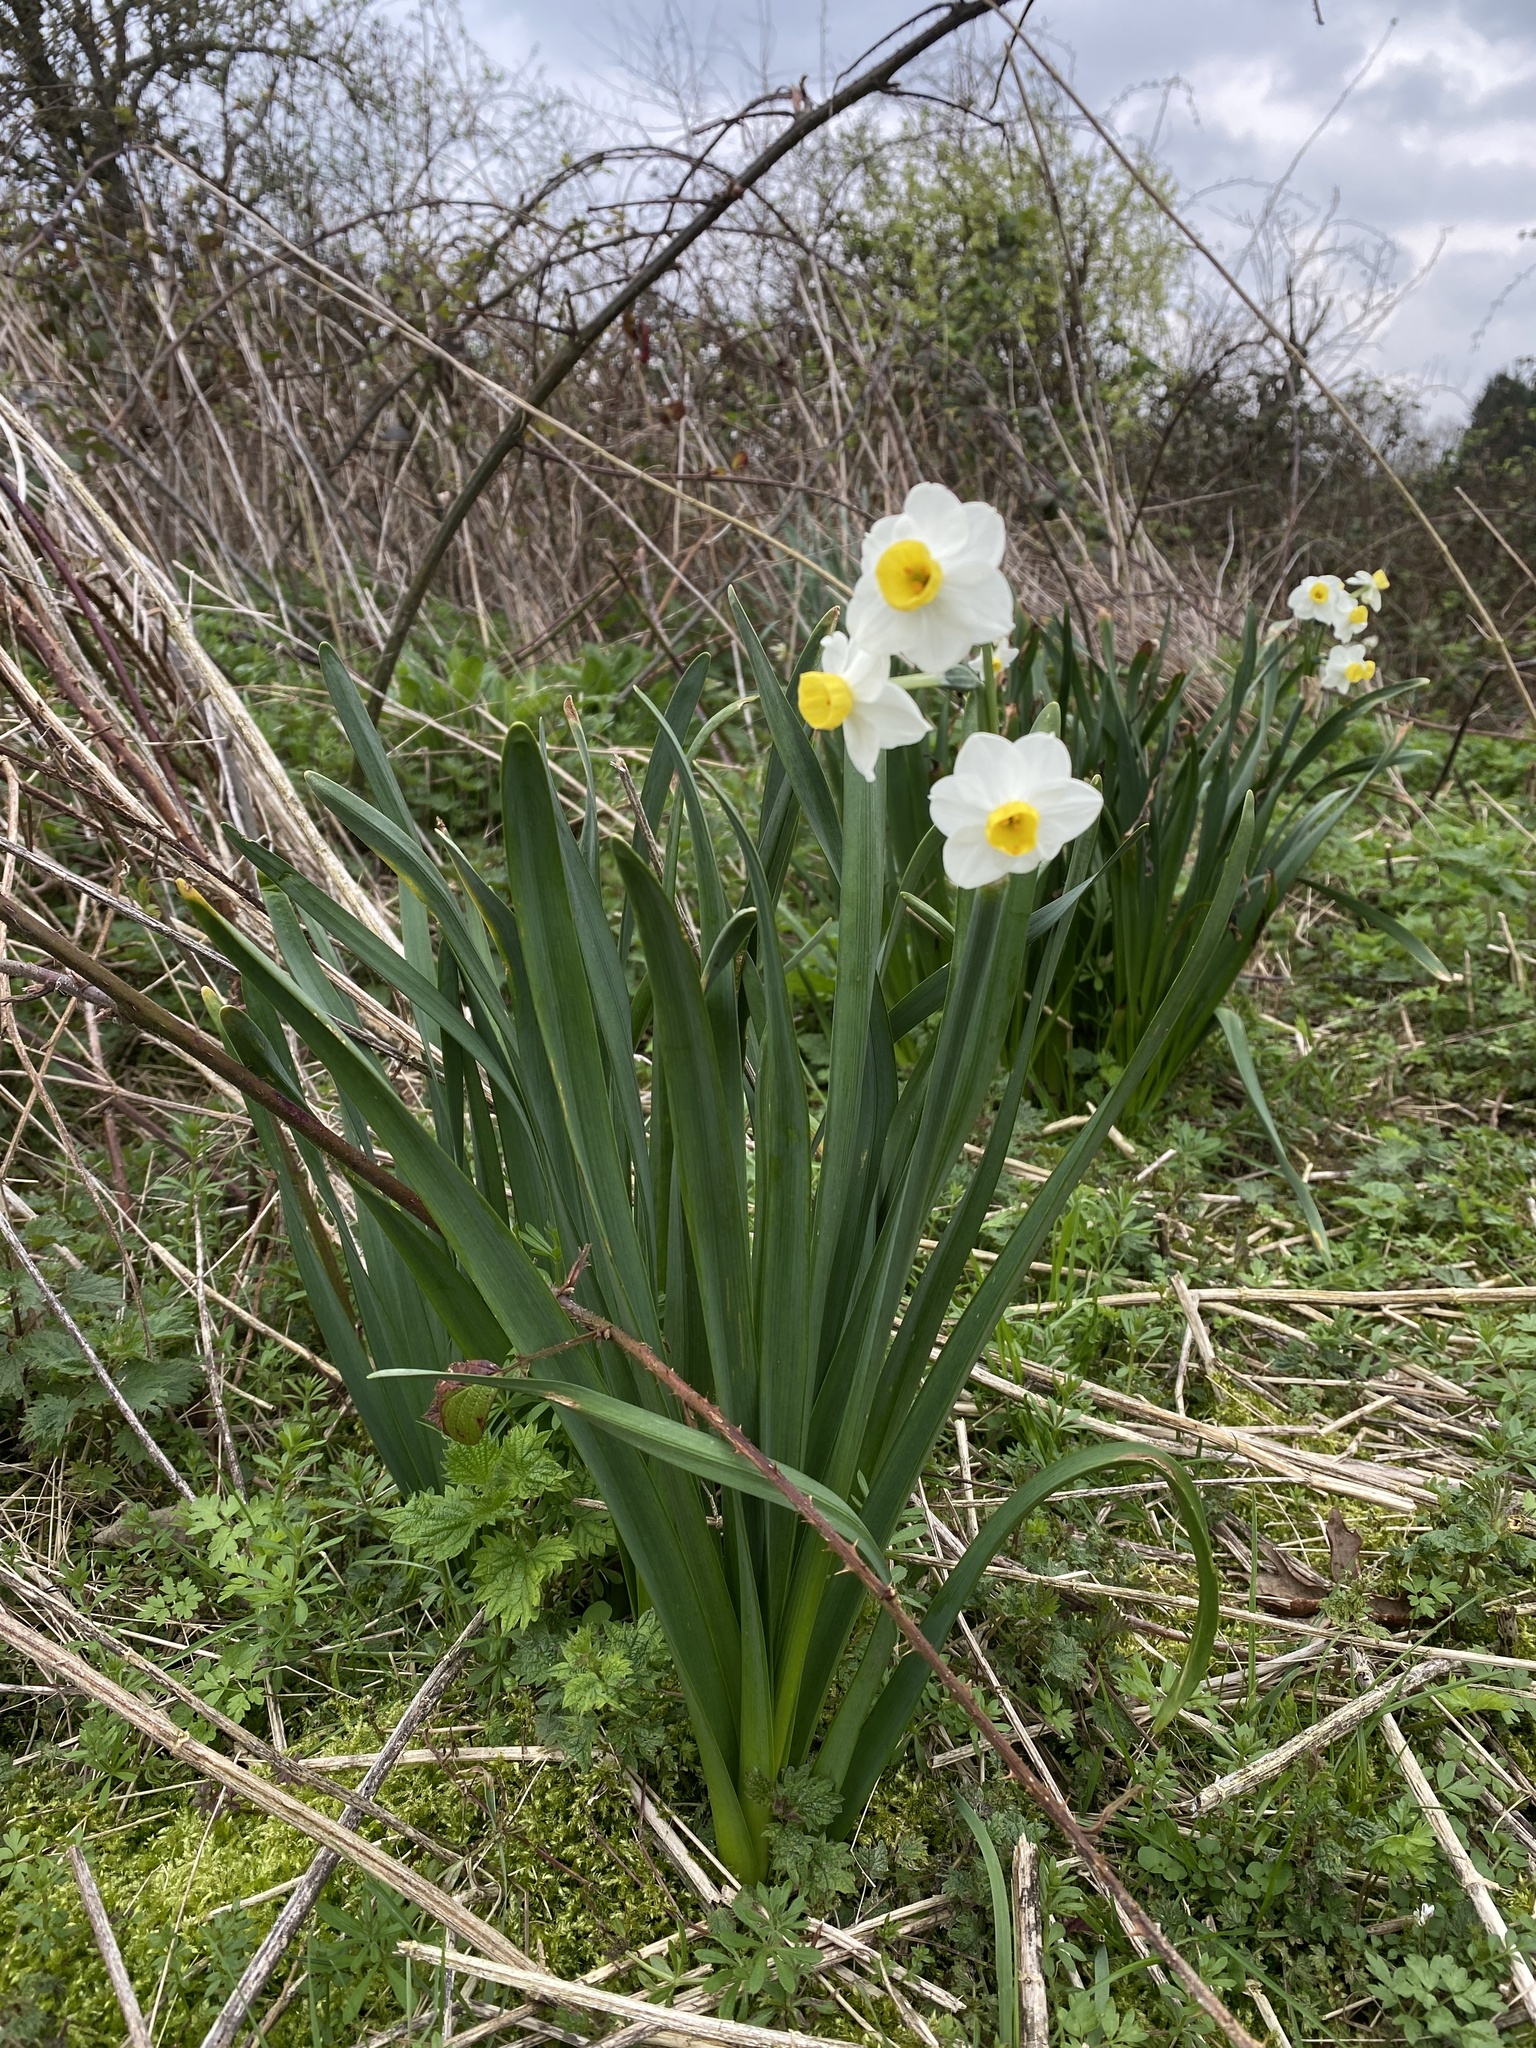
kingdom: Plantae
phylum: Tracheophyta
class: Liliopsida
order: Asparagales
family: Amaryllidaceae
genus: Narcissus
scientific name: Narcissus tazetta
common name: Bunch-flowered daffodil
